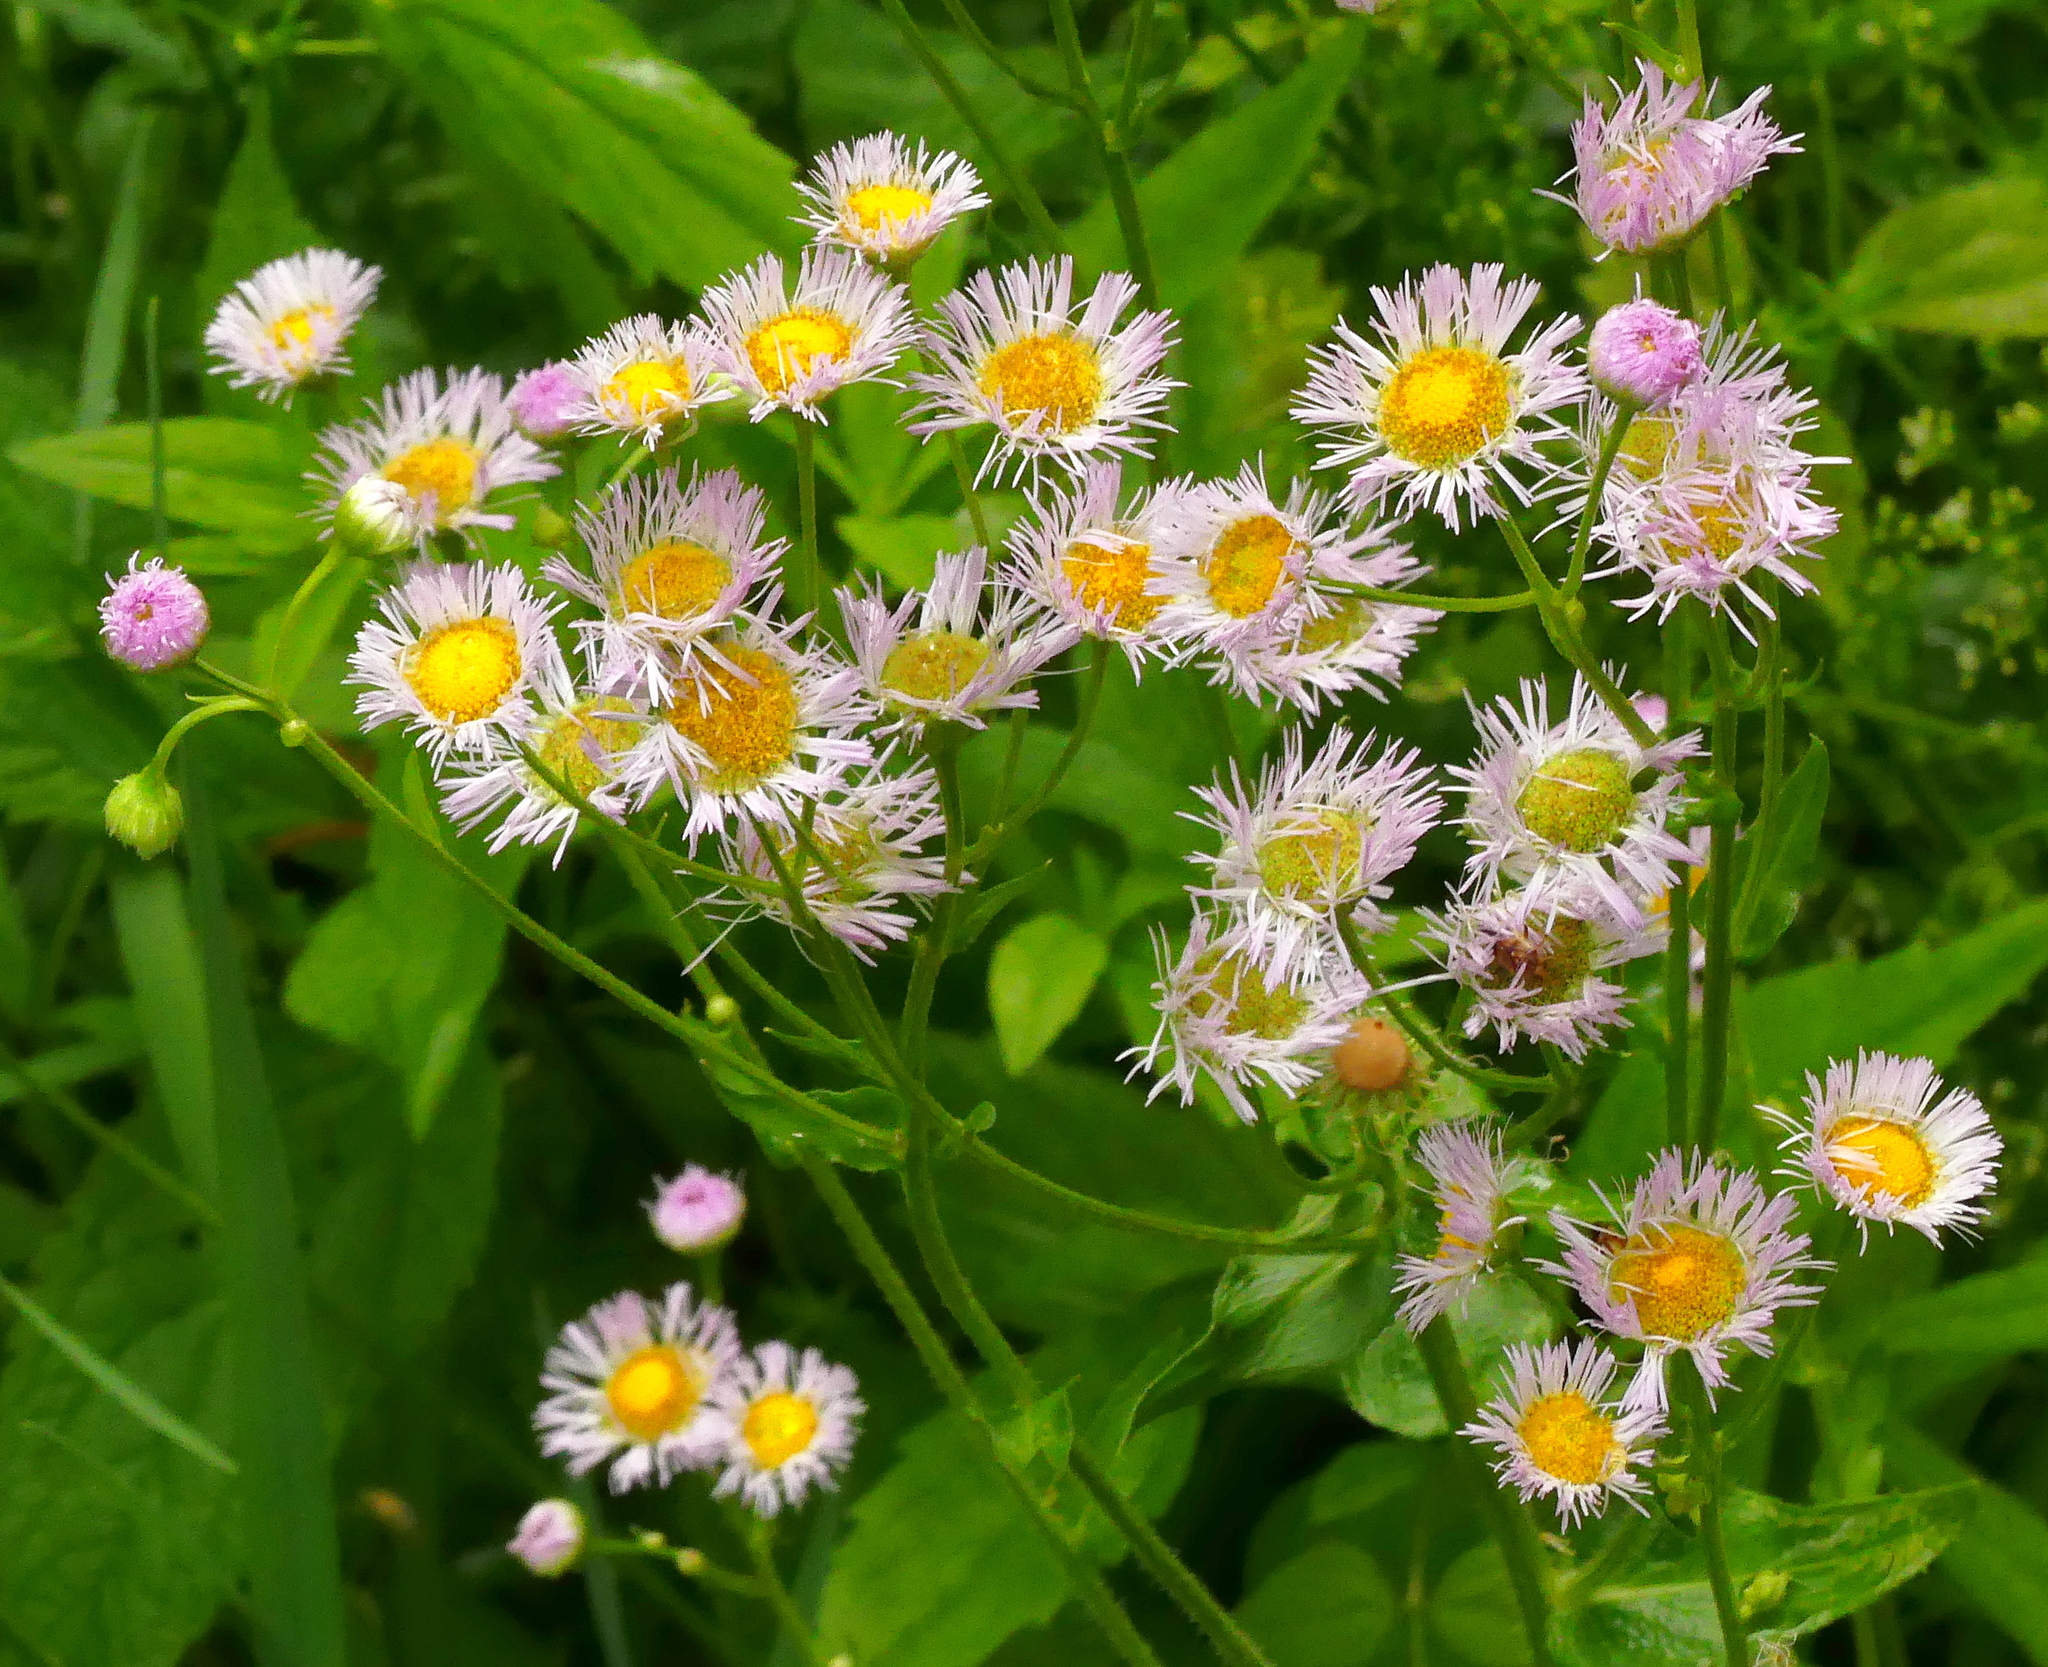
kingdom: Plantae
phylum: Tracheophyta
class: Magnoliopsida
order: Asterales
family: Asteraceae
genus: Erigeron
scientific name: Erigeron philadelphicus
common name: Robin's-plantain
